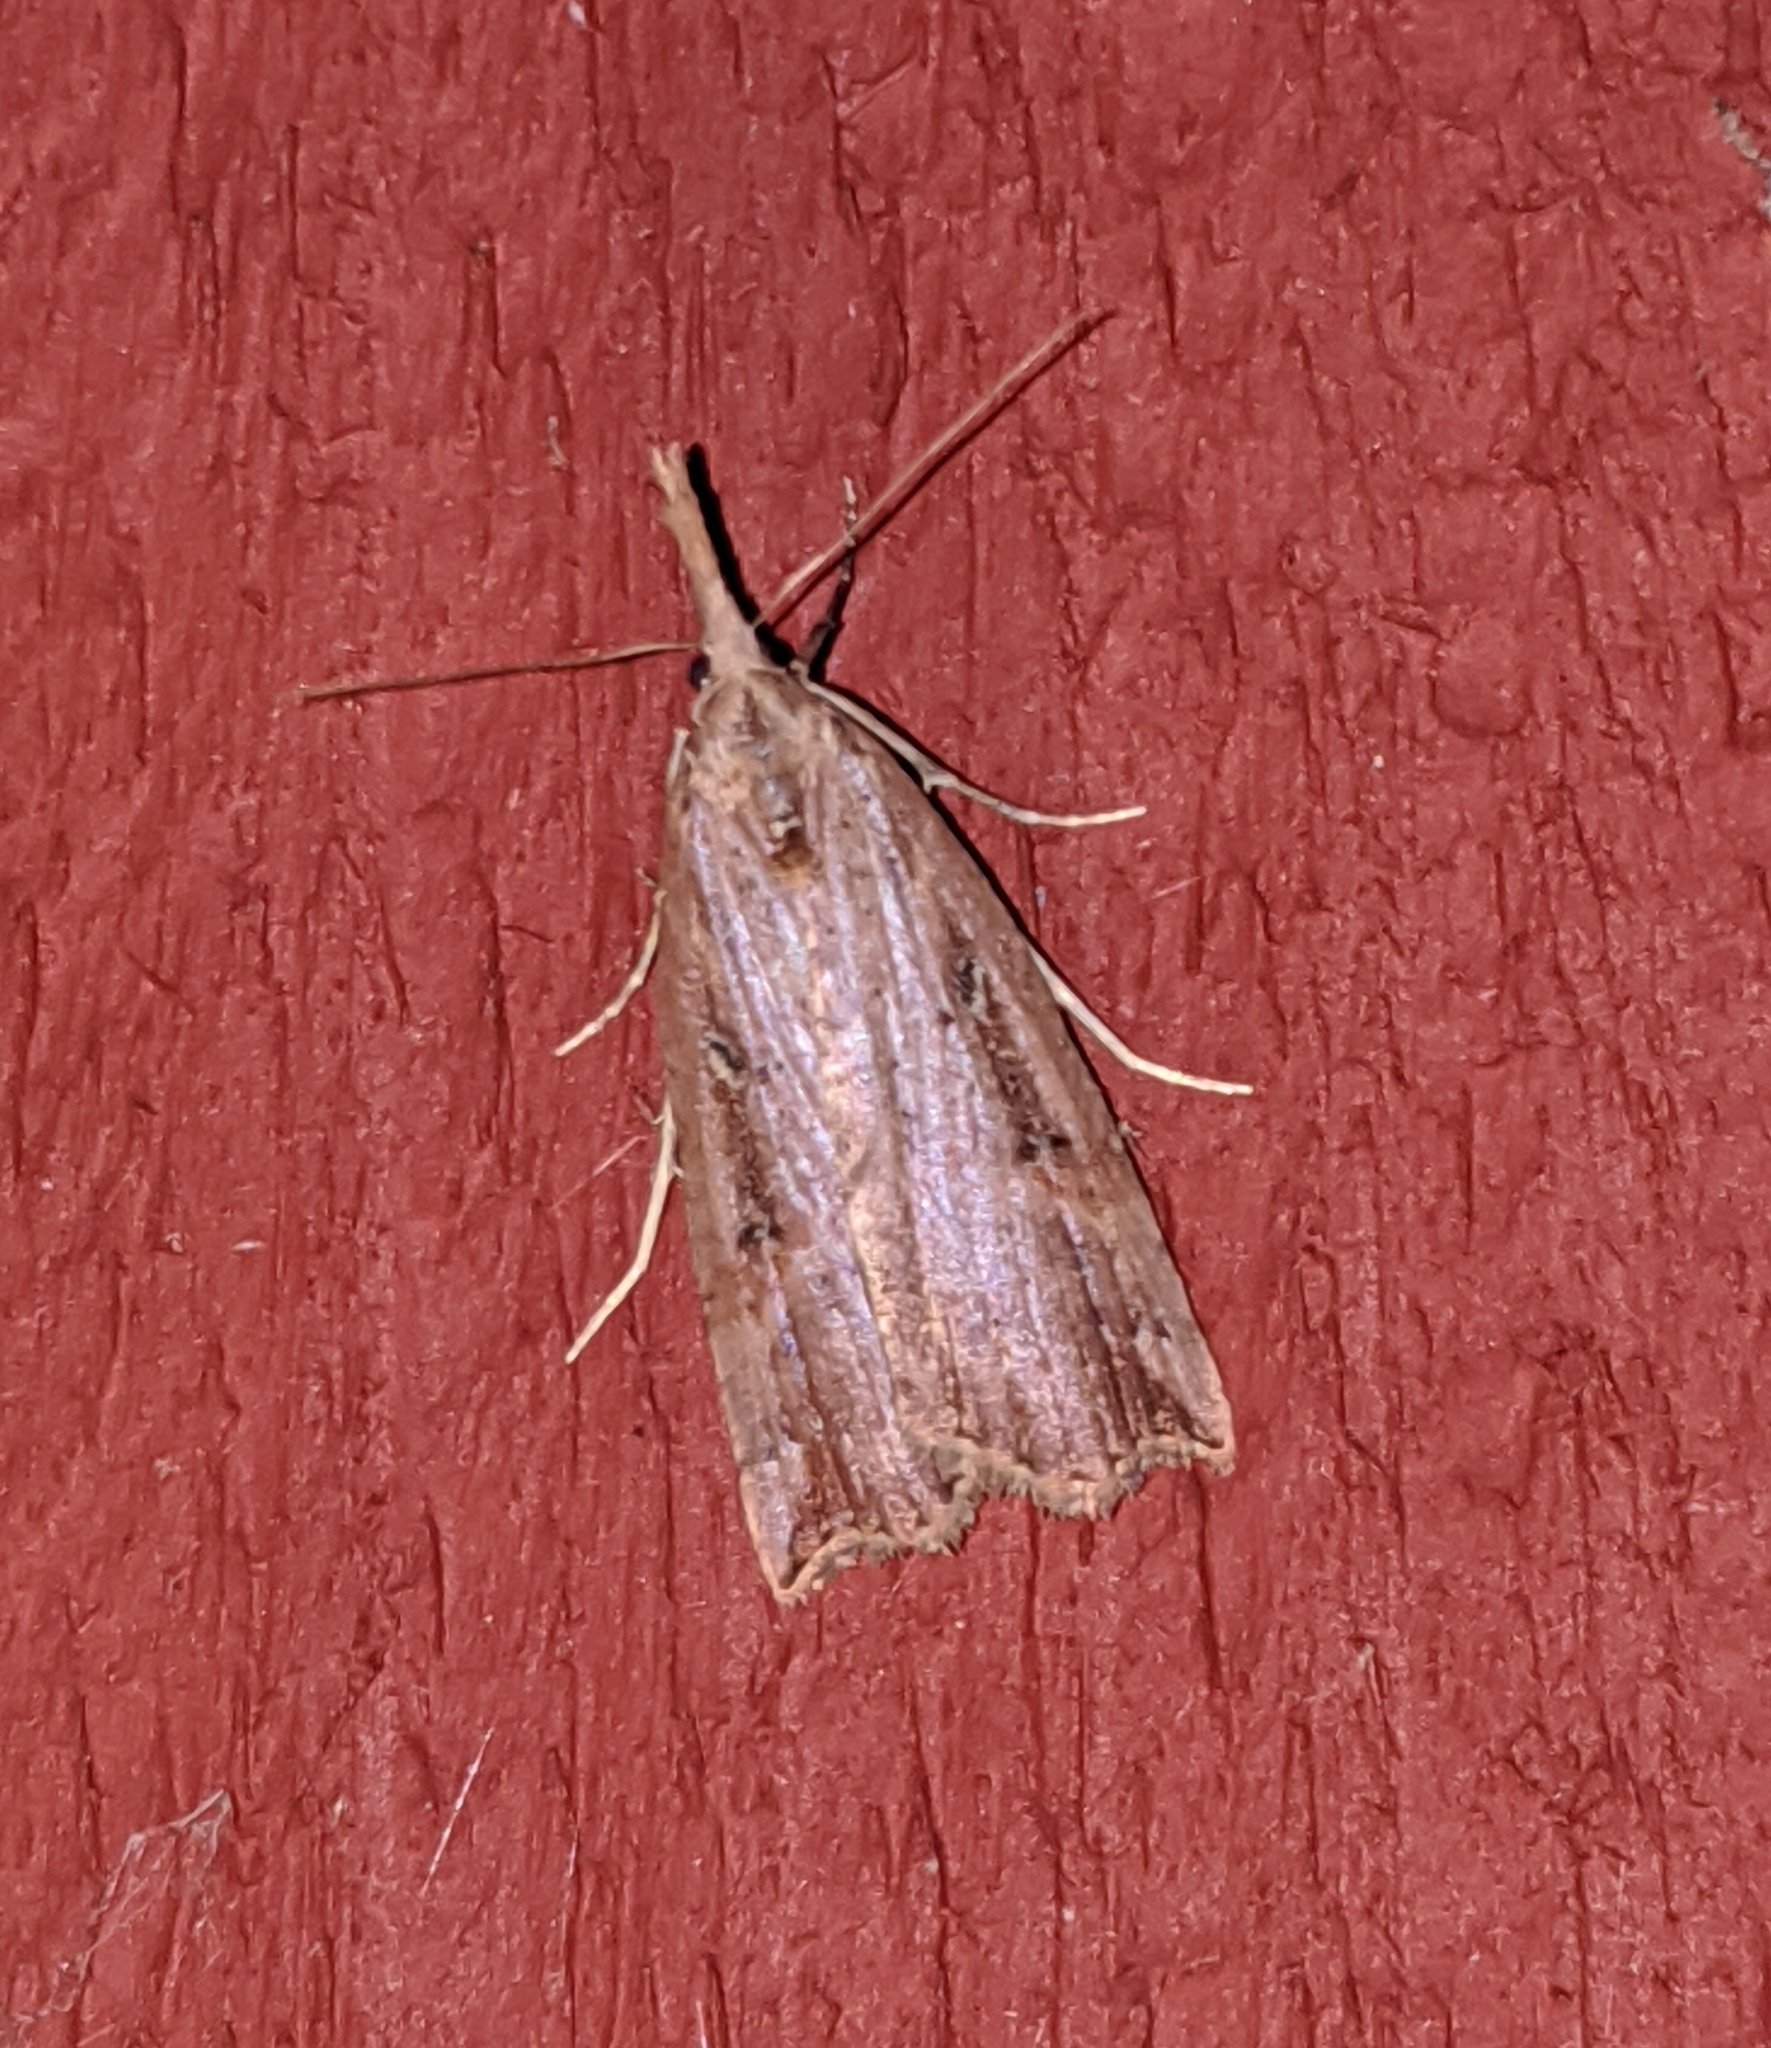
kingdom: Animalia
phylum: Arthropoda
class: Insecta
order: Lepidoptera
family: Erebidae
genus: Hypena
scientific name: Hypena californica
